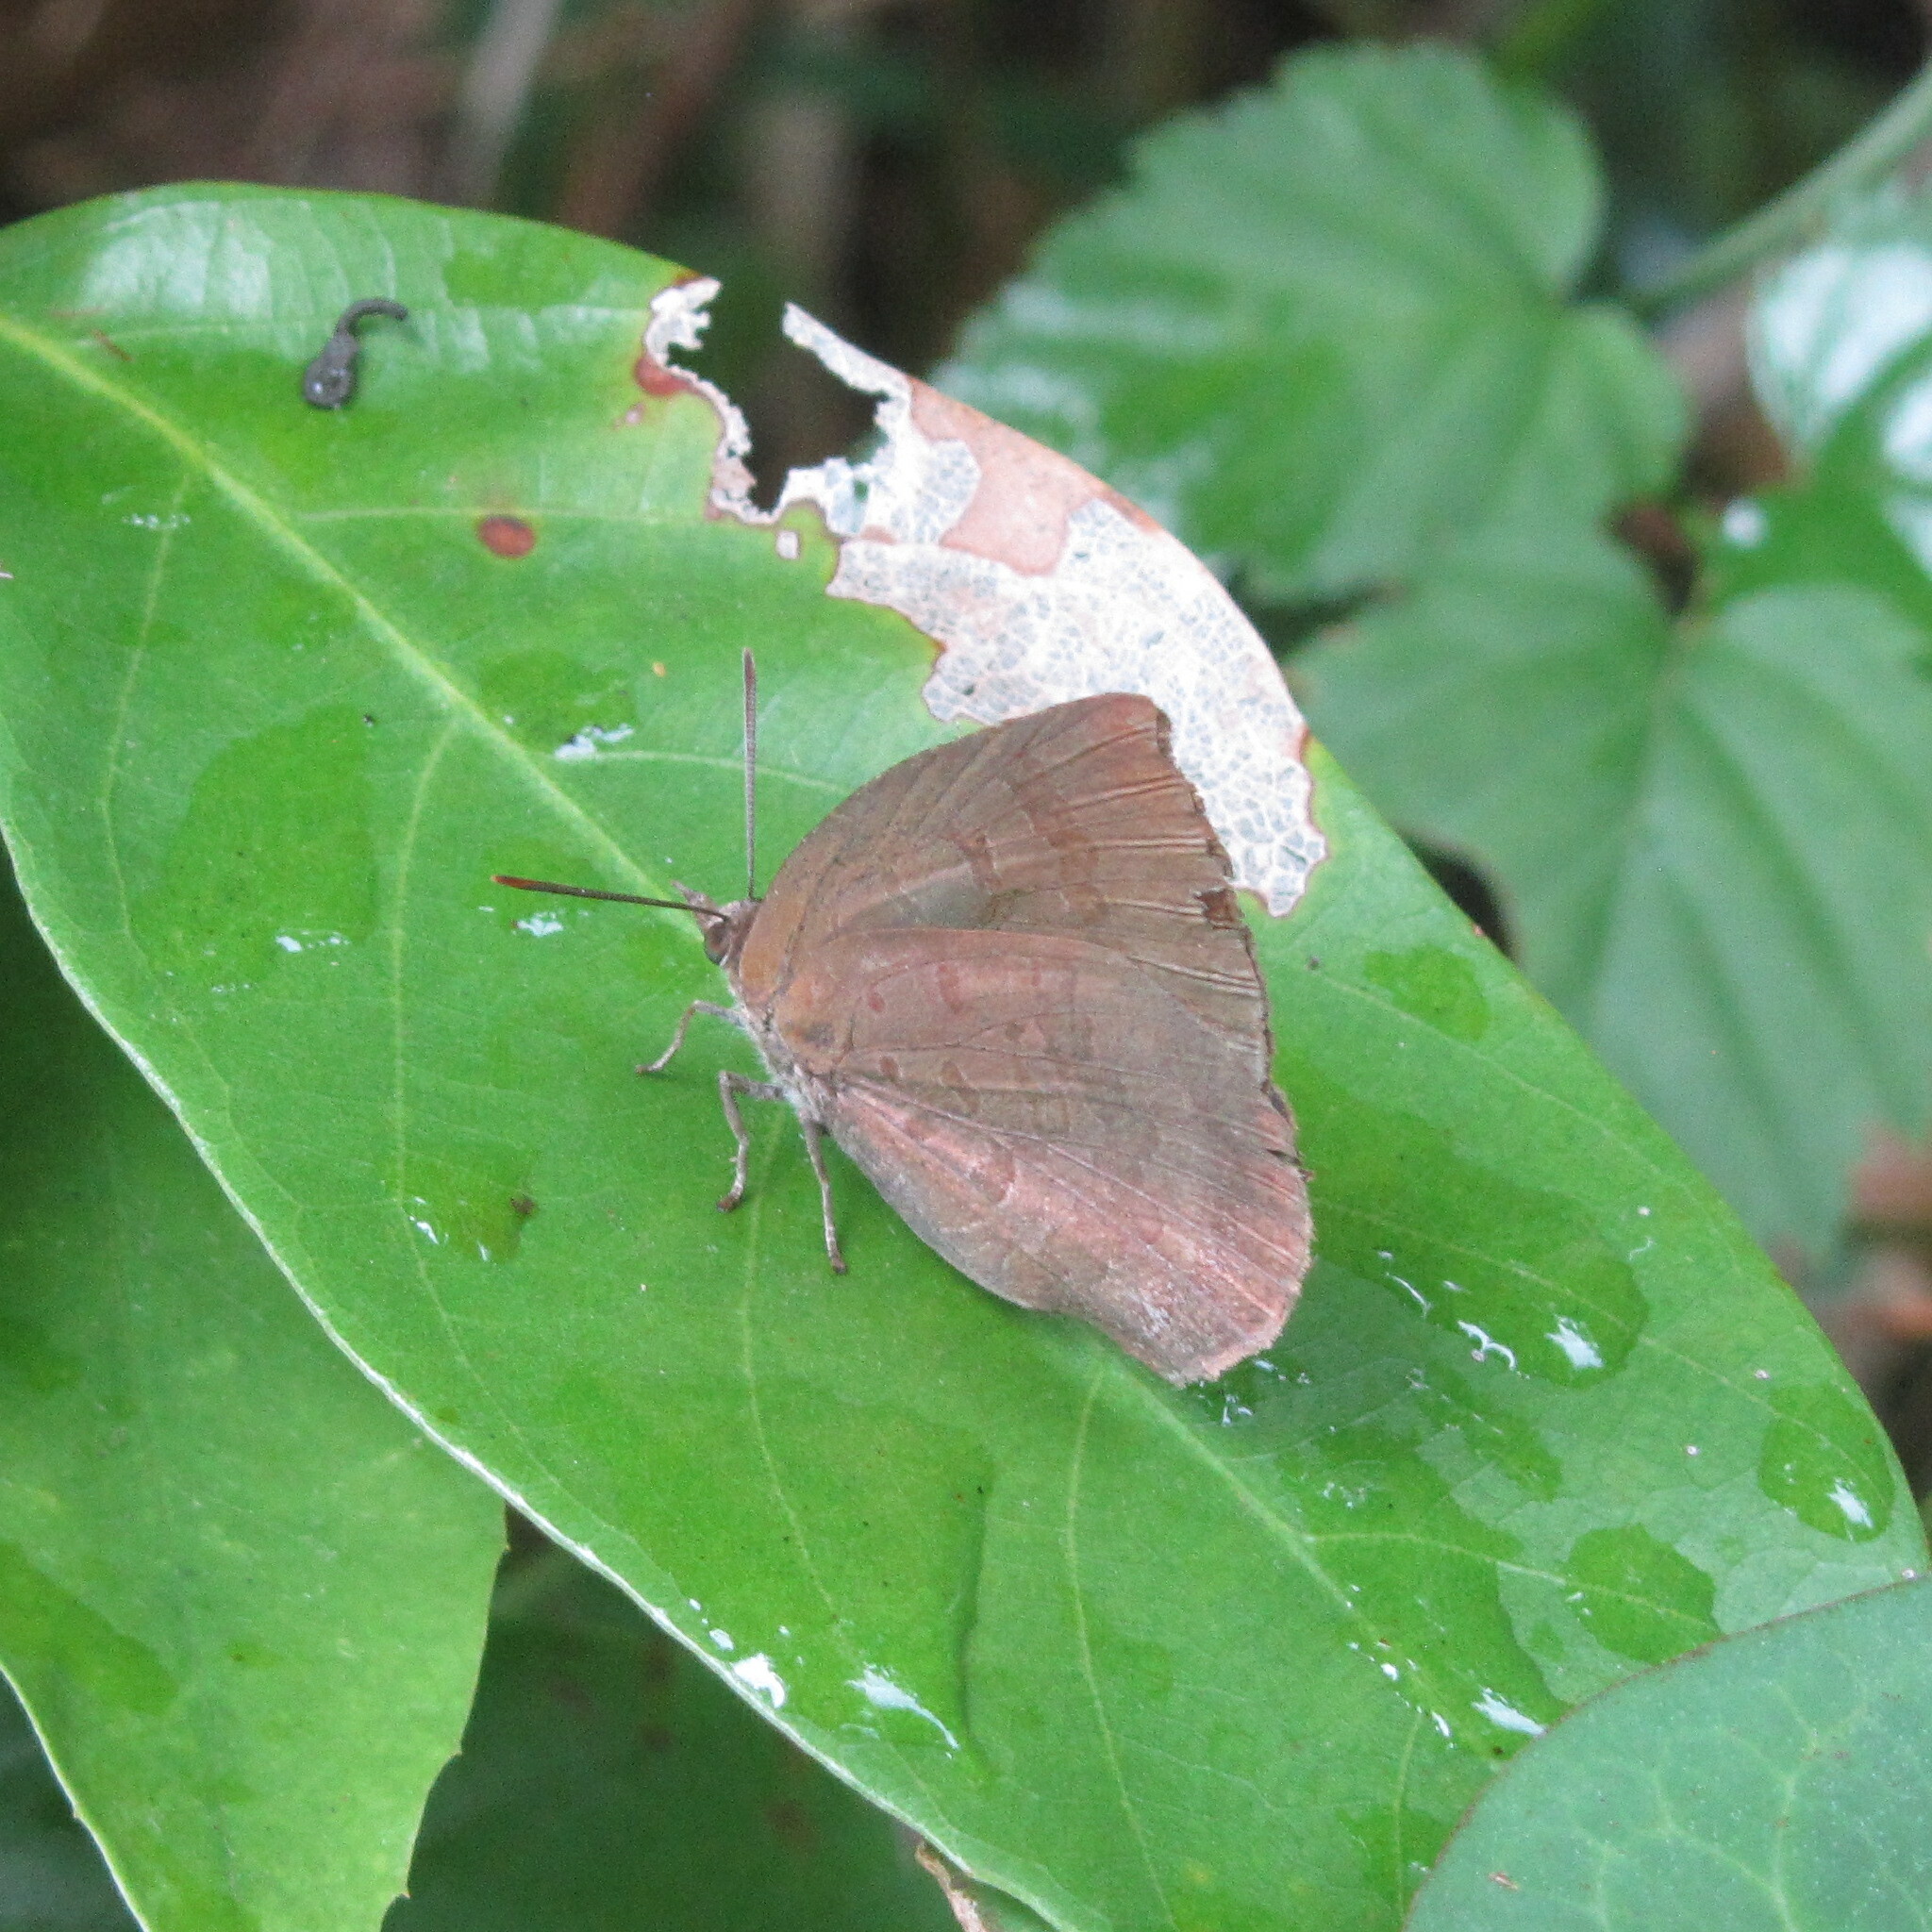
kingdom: Animalia
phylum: Arthropoda
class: Insecta
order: Lepidoptera
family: Lycaenidae
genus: Arhopala
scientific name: Arhopala japonica
